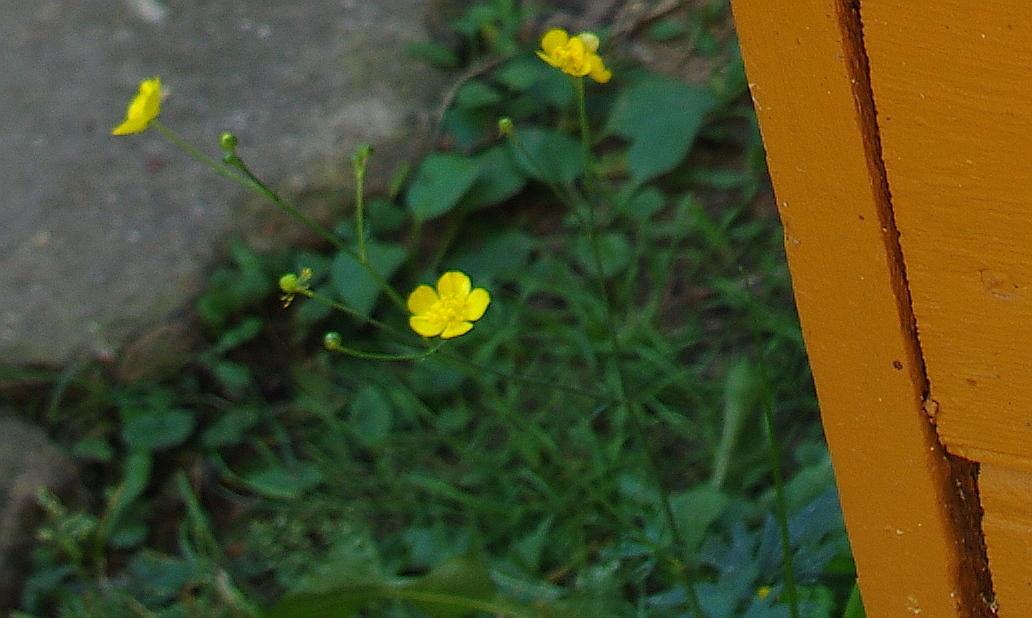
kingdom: Plantae
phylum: Tracheophyta
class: Magnoliopsida
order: Ranunculales
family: Ranunculaceae
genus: Ranunculus
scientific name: Ranunculus acris
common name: Meadow buttercup
